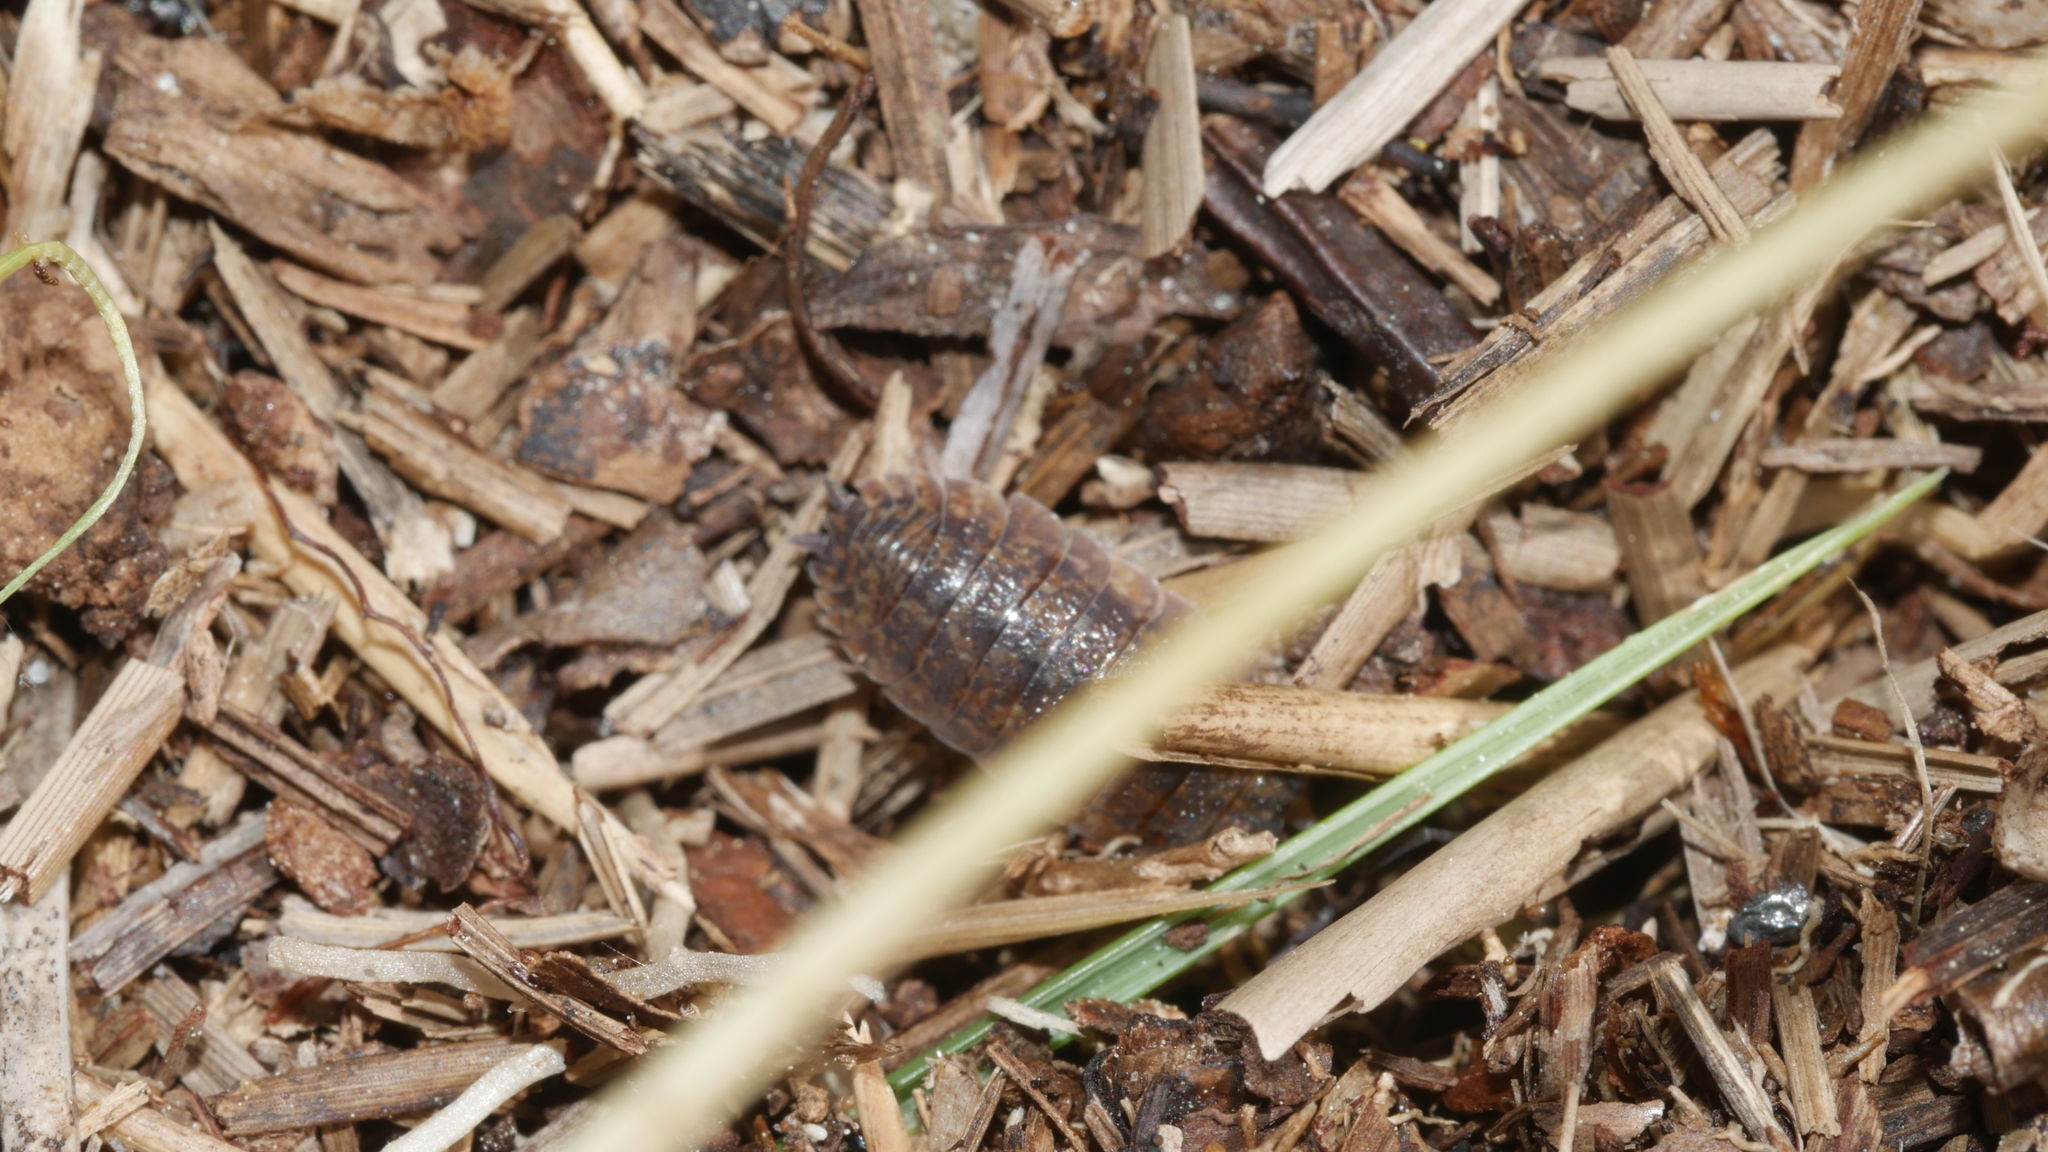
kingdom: Animalia
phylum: Arthropoda
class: Malacostraca
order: Isopoda
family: Porcellionidae
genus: Porcellio
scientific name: Porcellio scaber
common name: Common rough woodlouse
